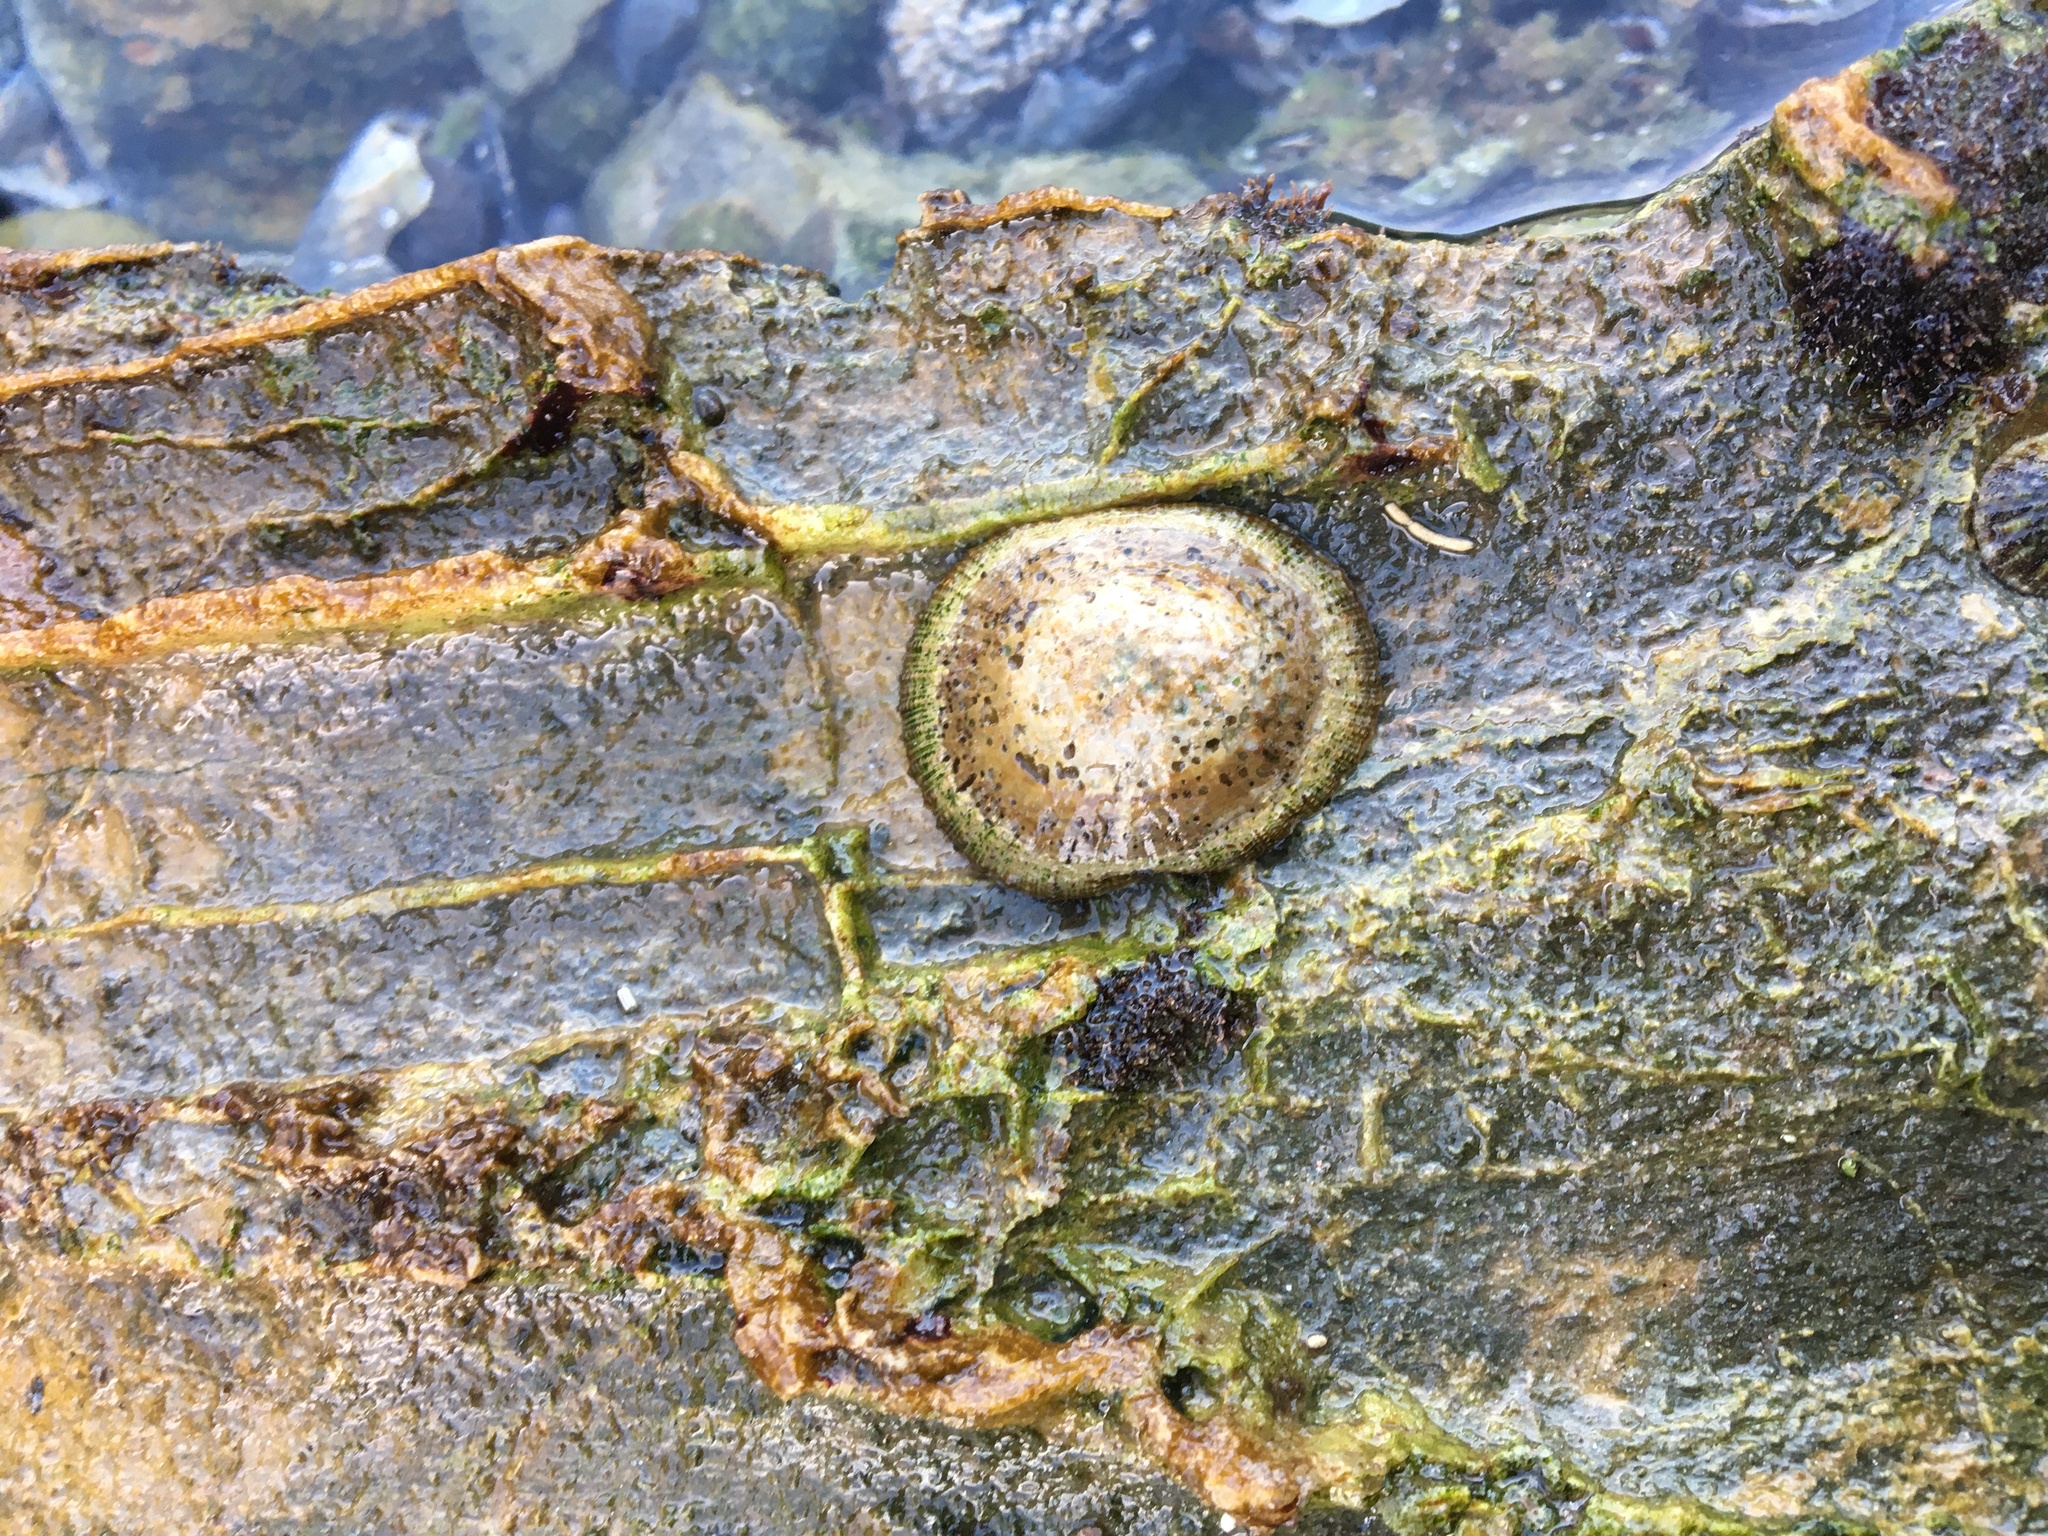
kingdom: Animalia
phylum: Mollusca
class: Gastropoda
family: Lottiidae
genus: Lottia
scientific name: Lottia limatula
